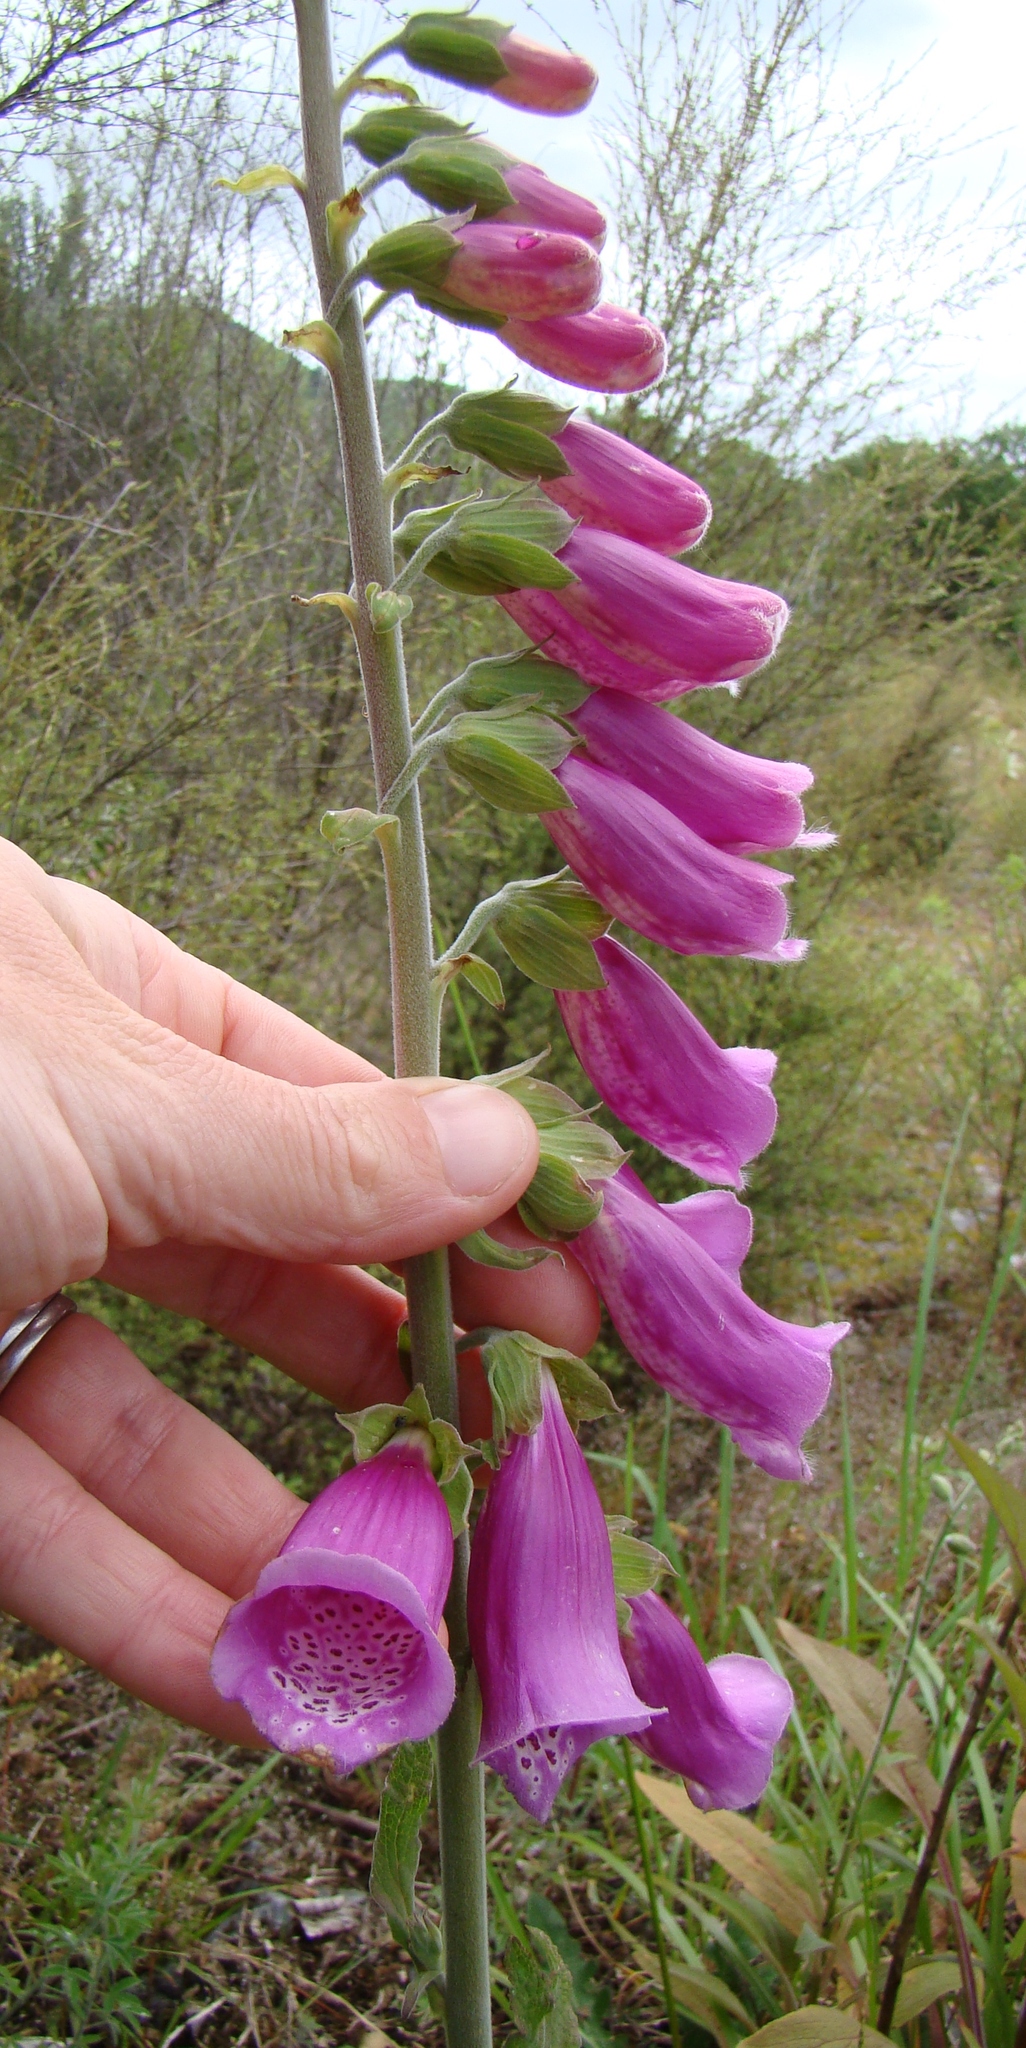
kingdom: Plantae
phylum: Tracheophyta
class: Magnoliopsida
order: Lamiales
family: Plantaginaceae
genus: Digitalis
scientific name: Digitalis purpurea
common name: Foxglove
